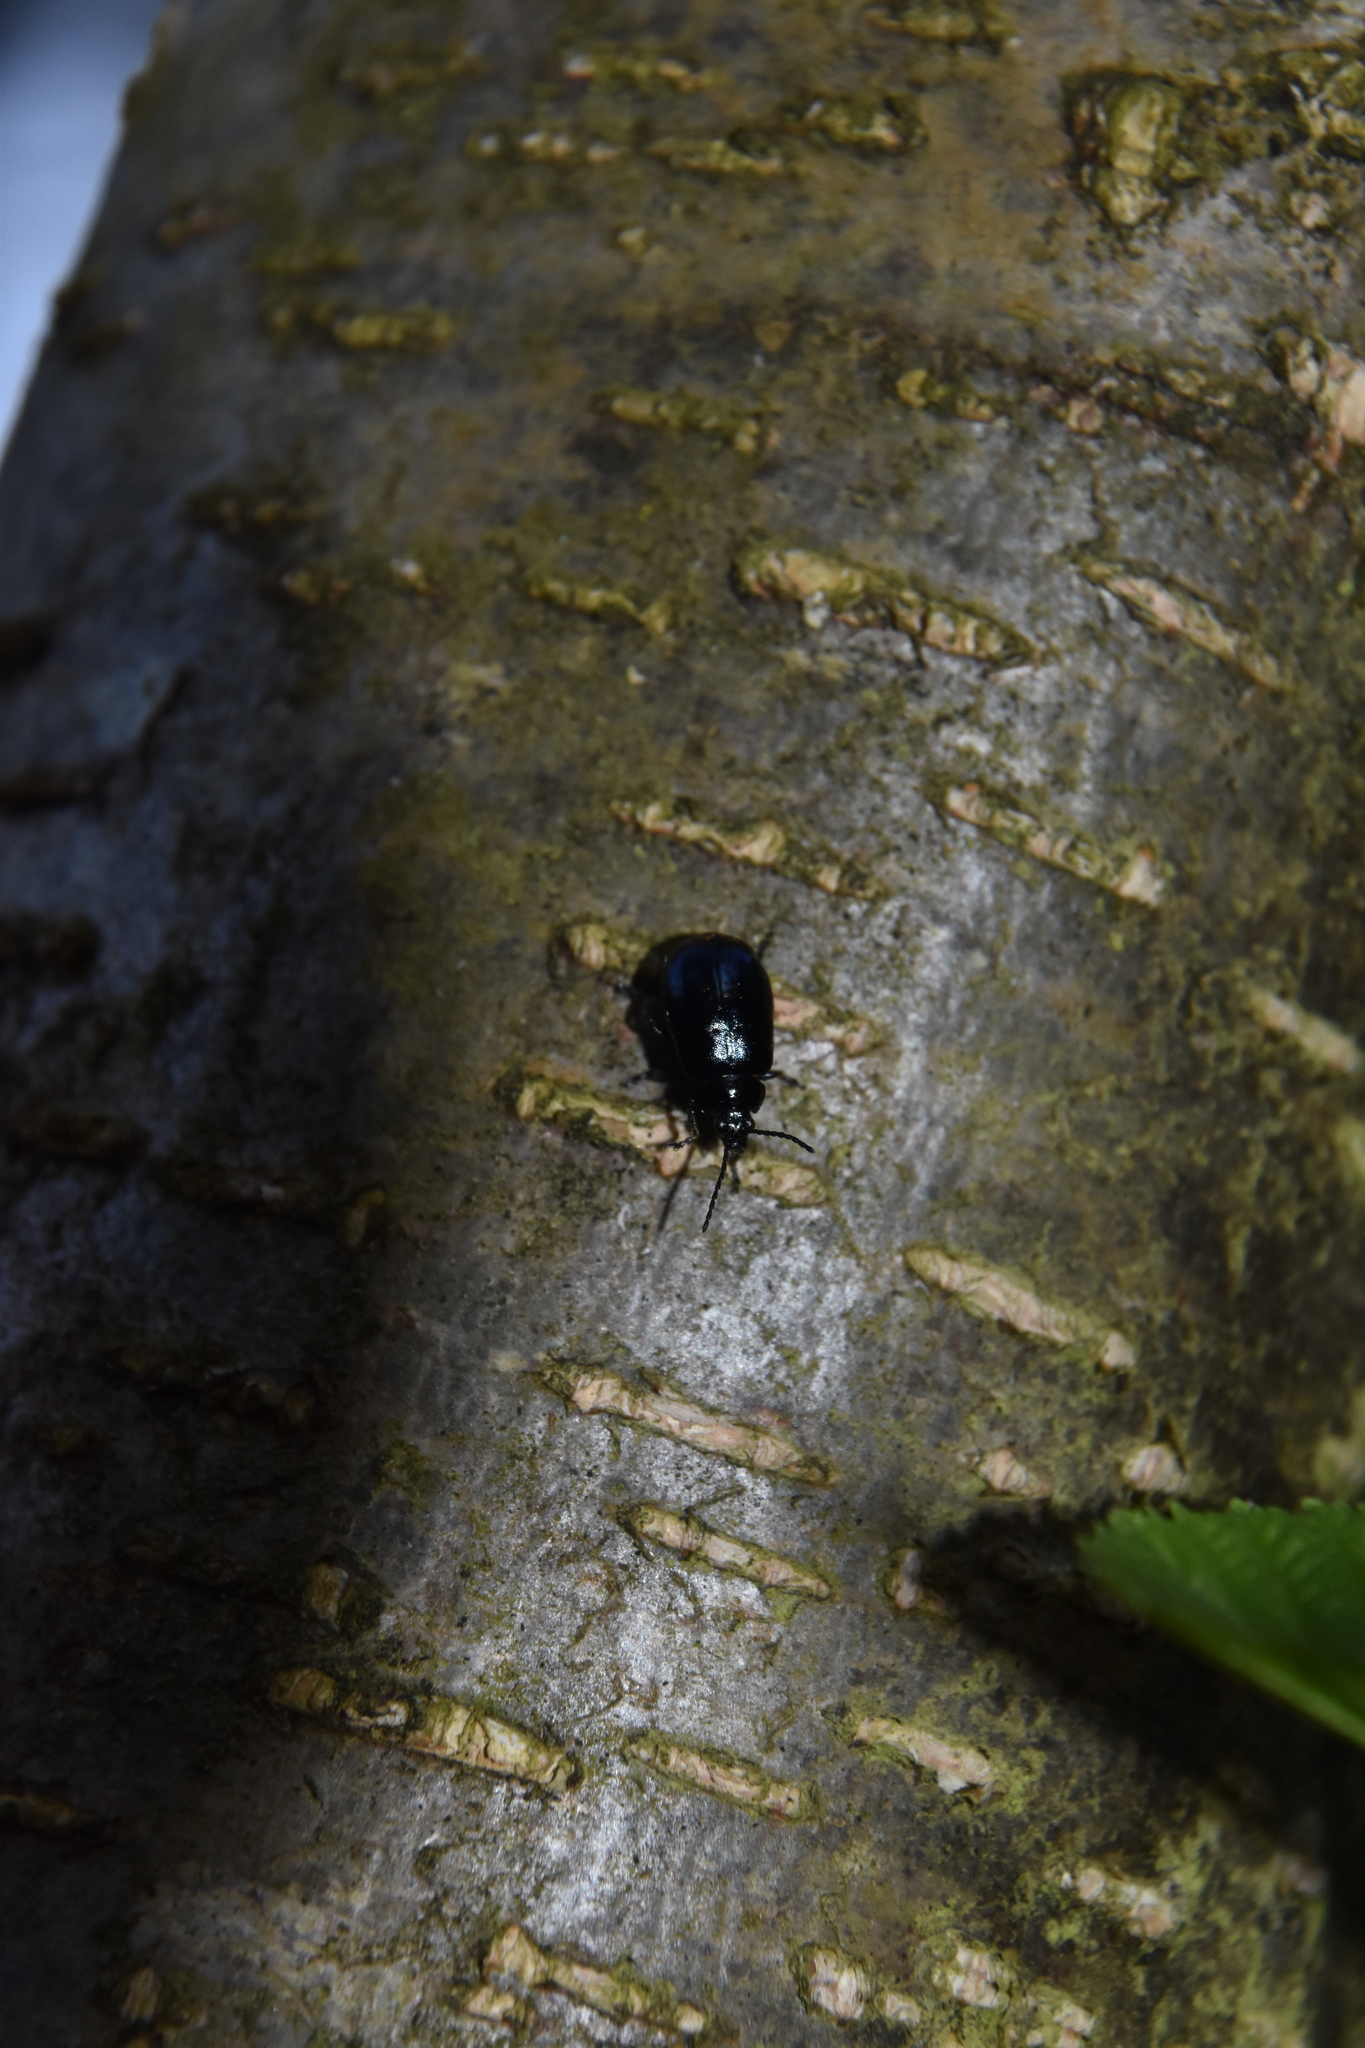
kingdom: Animalia
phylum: Arthropoda
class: Insecta
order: Coleoptera
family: Chrysomelidae
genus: Agelastica
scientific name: Agelastica alni
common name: Alder leaf beetle
